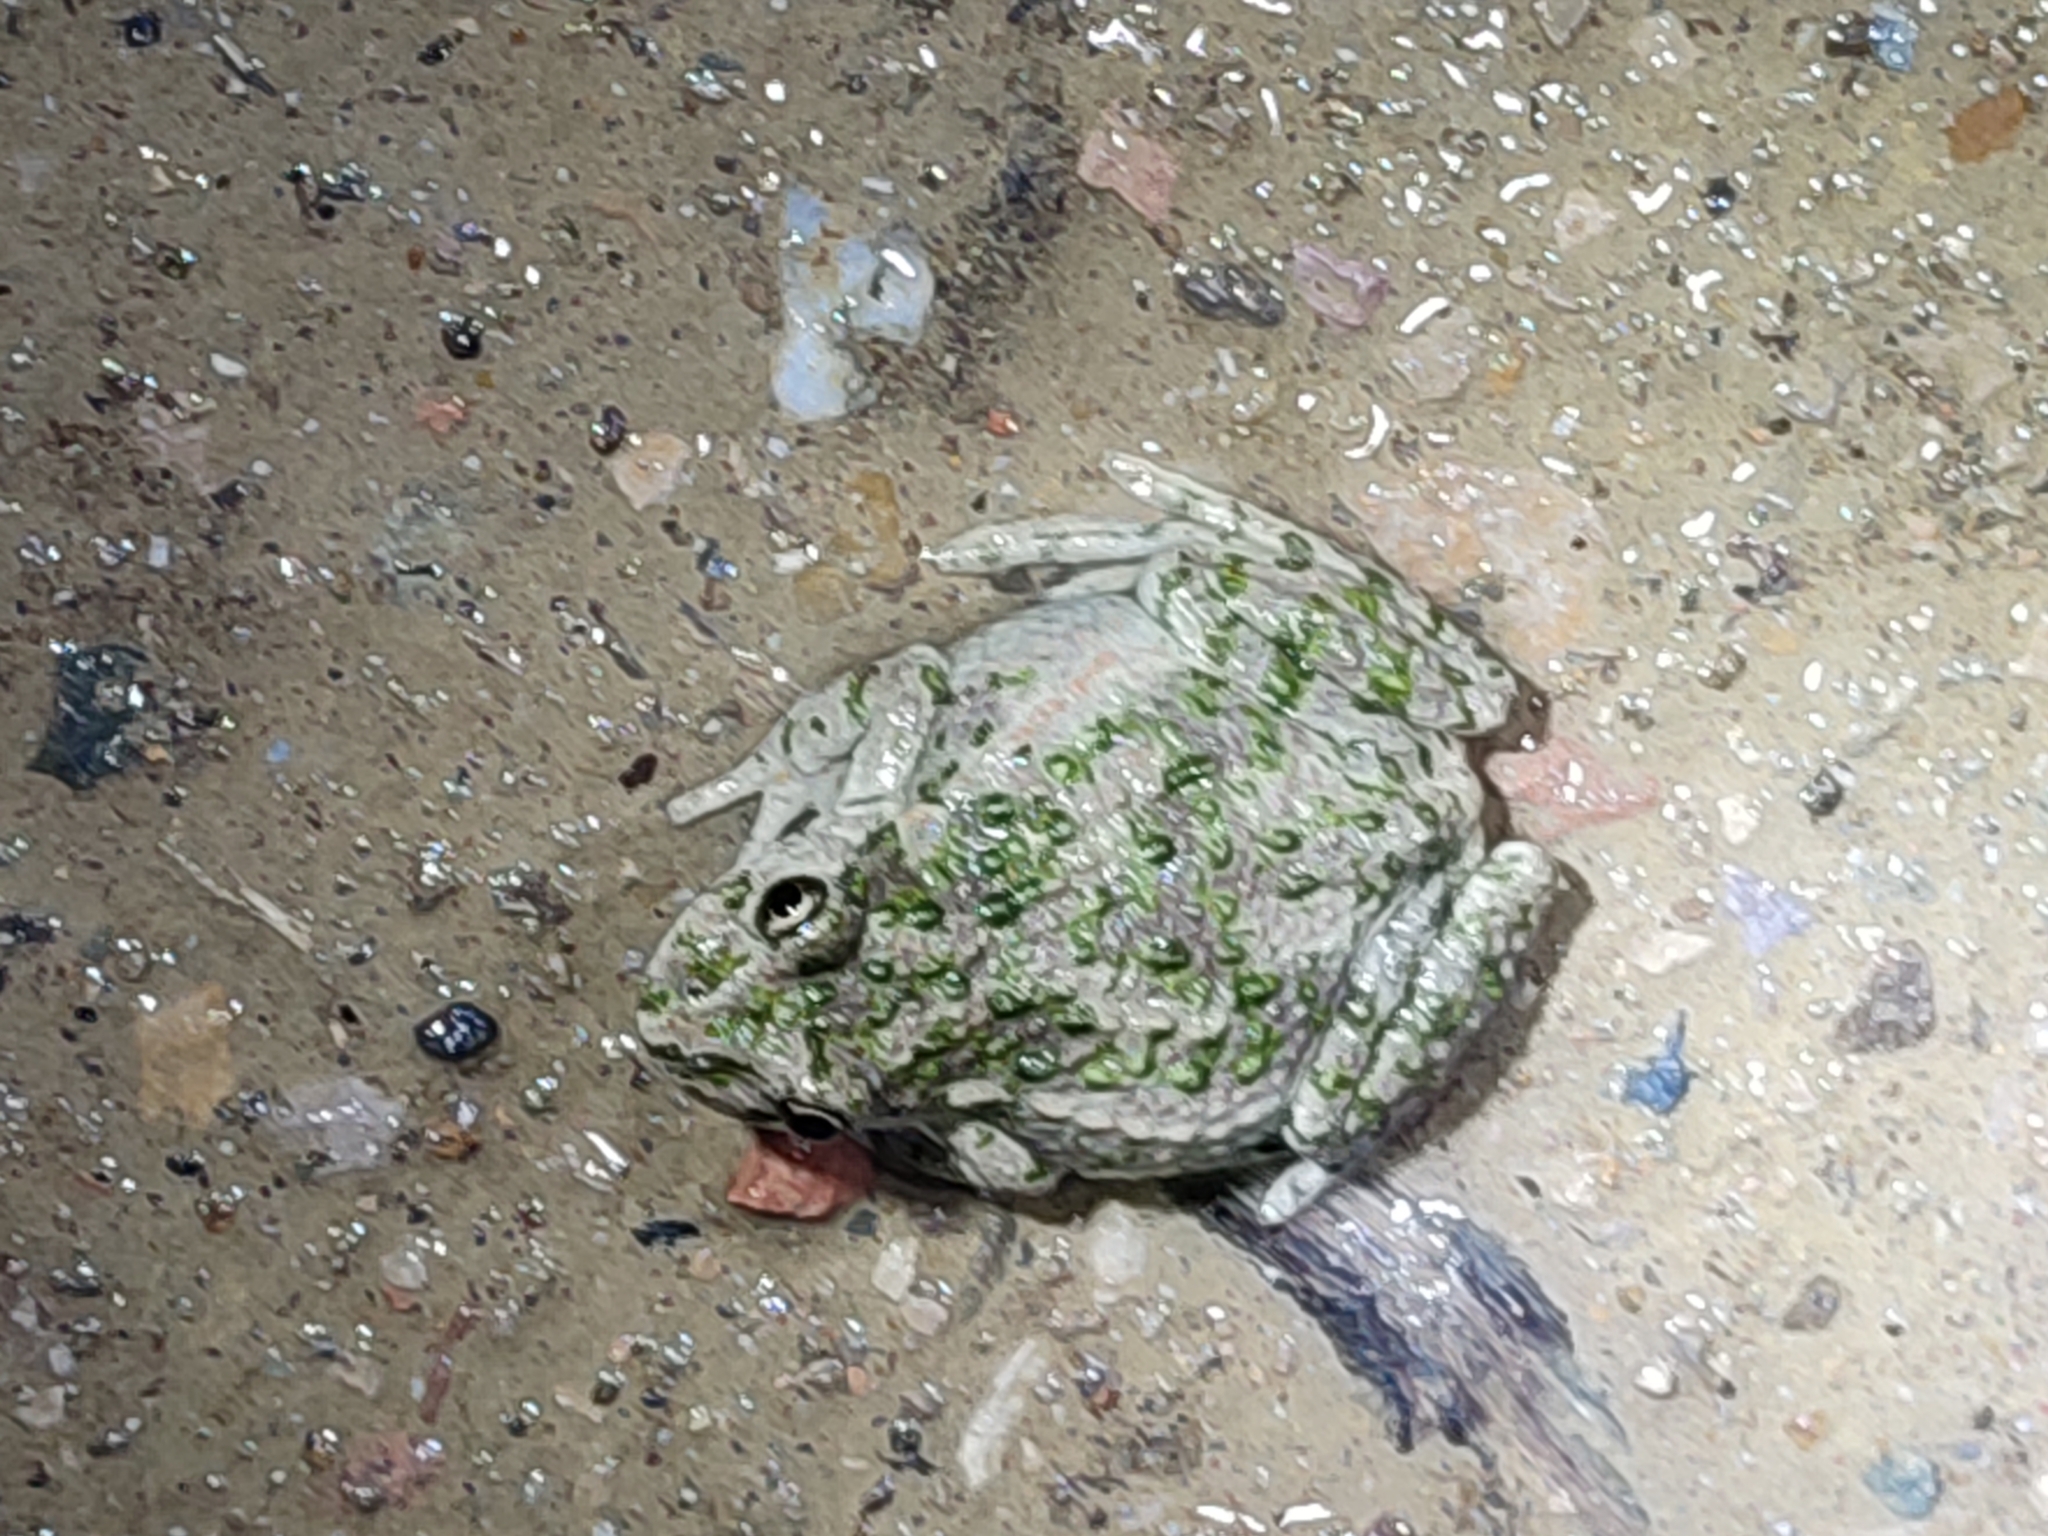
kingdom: Animalia
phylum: Chordata
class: Amphibia
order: Anura
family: Pelodytidae
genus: Pelodytes
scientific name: Pelodytes punctatus
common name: Parsley frog
